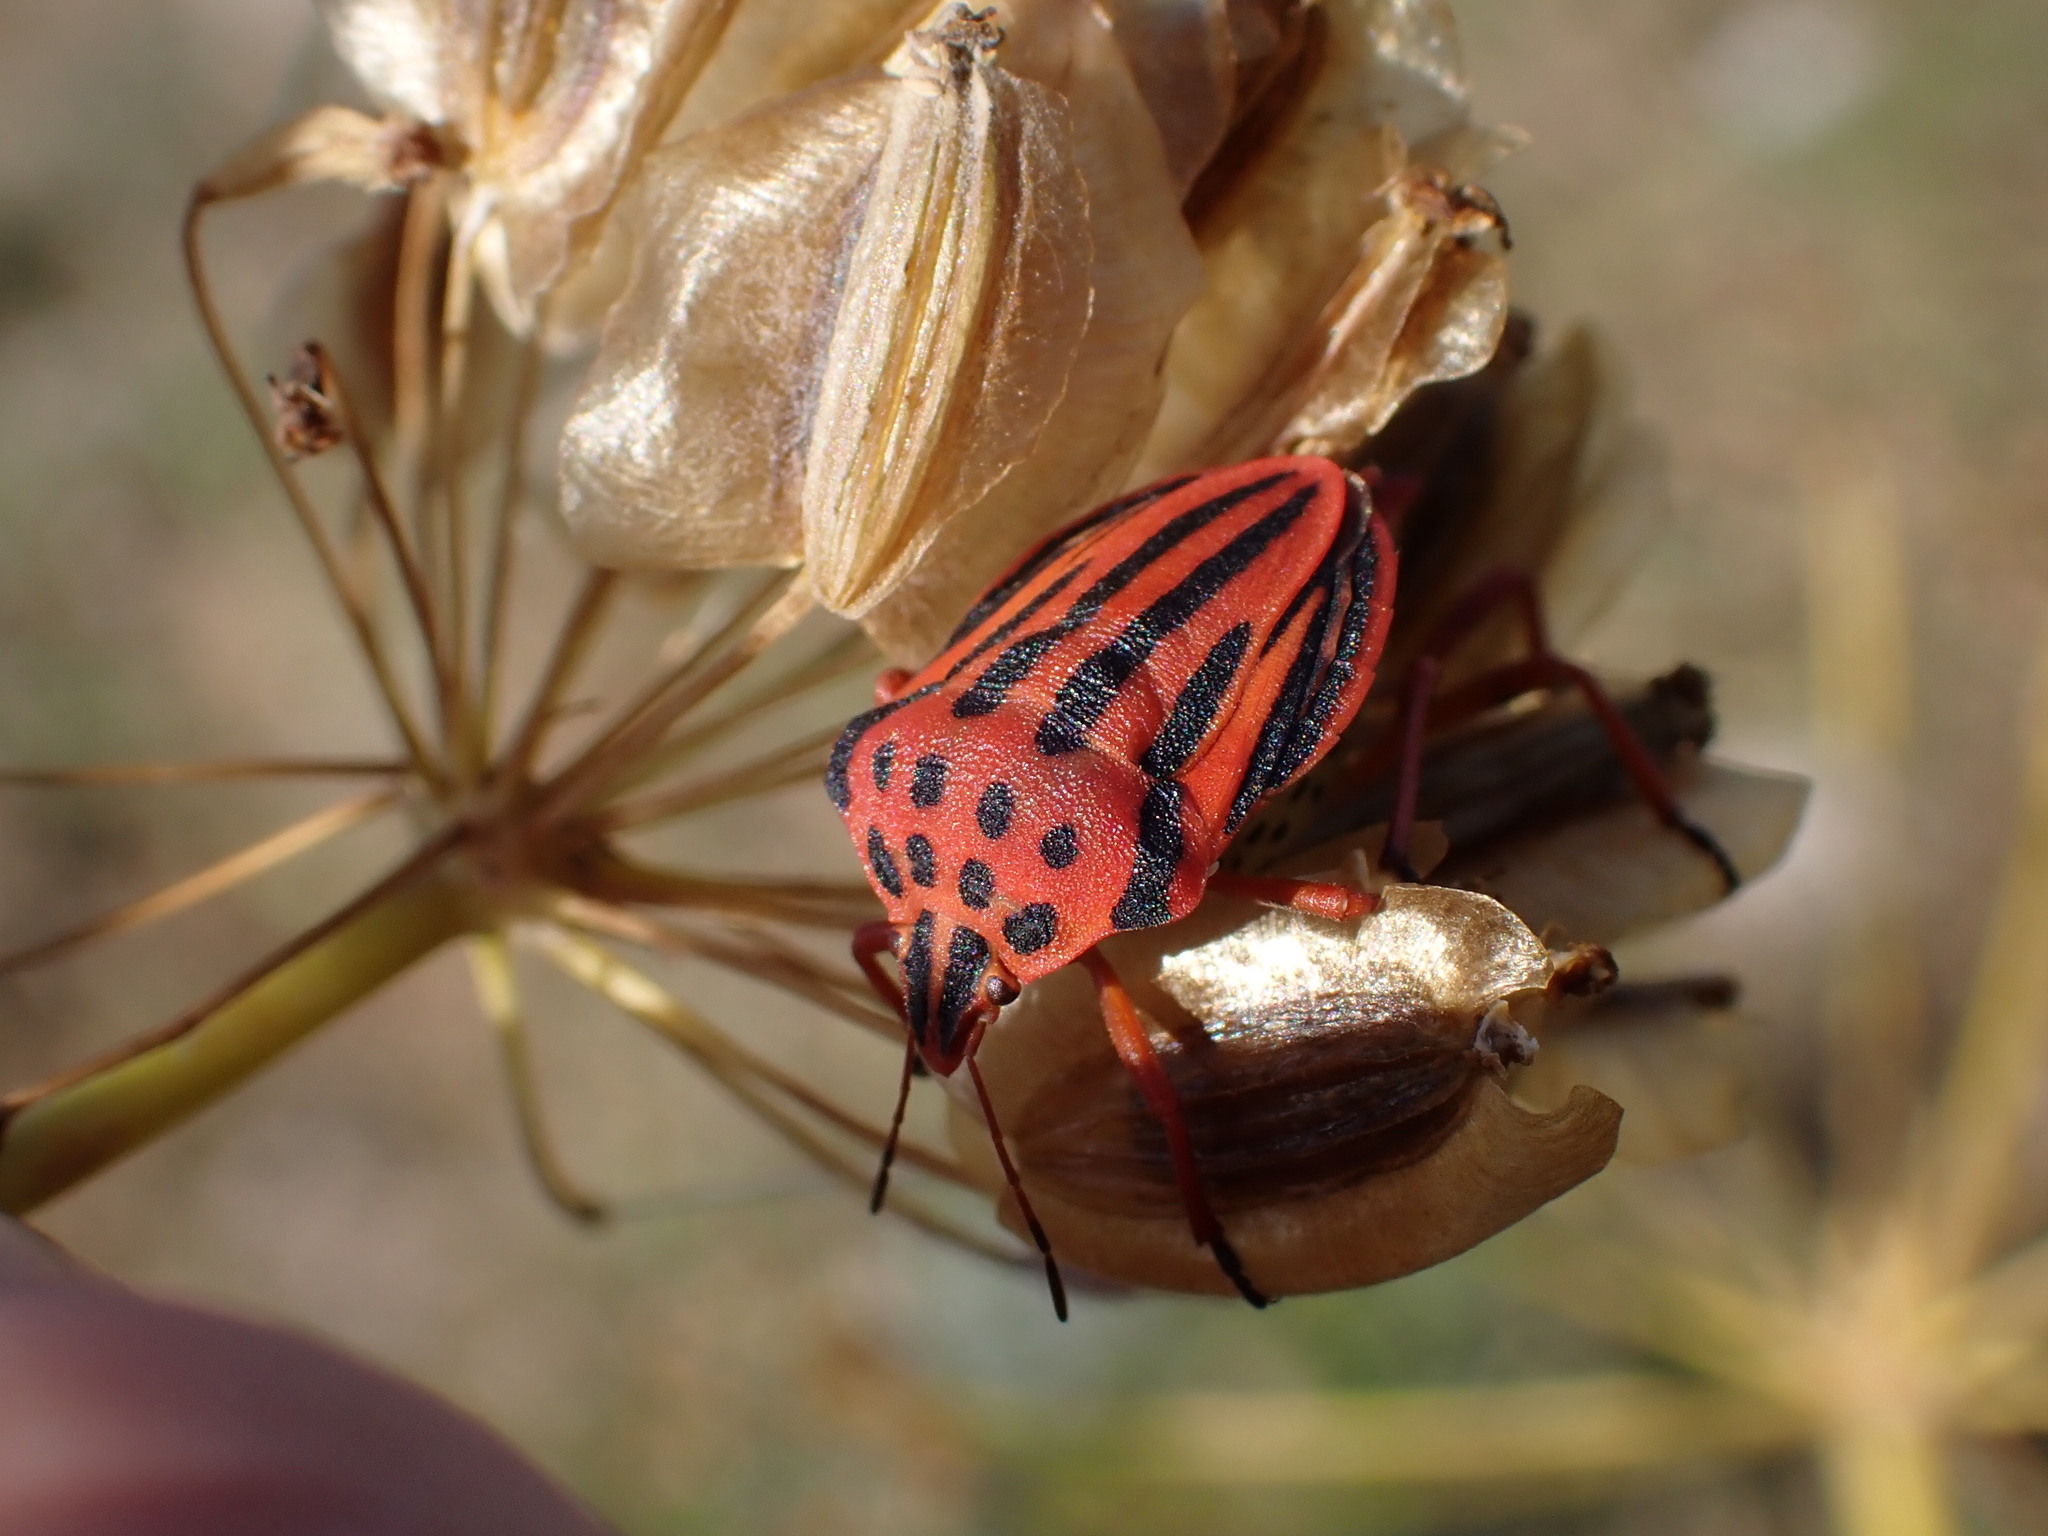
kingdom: Animalia
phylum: Arthropoda
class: Insecta
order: Hemiptera
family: Pentatomidae
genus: Graphosoma
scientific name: Graphosoma semipunctatum
